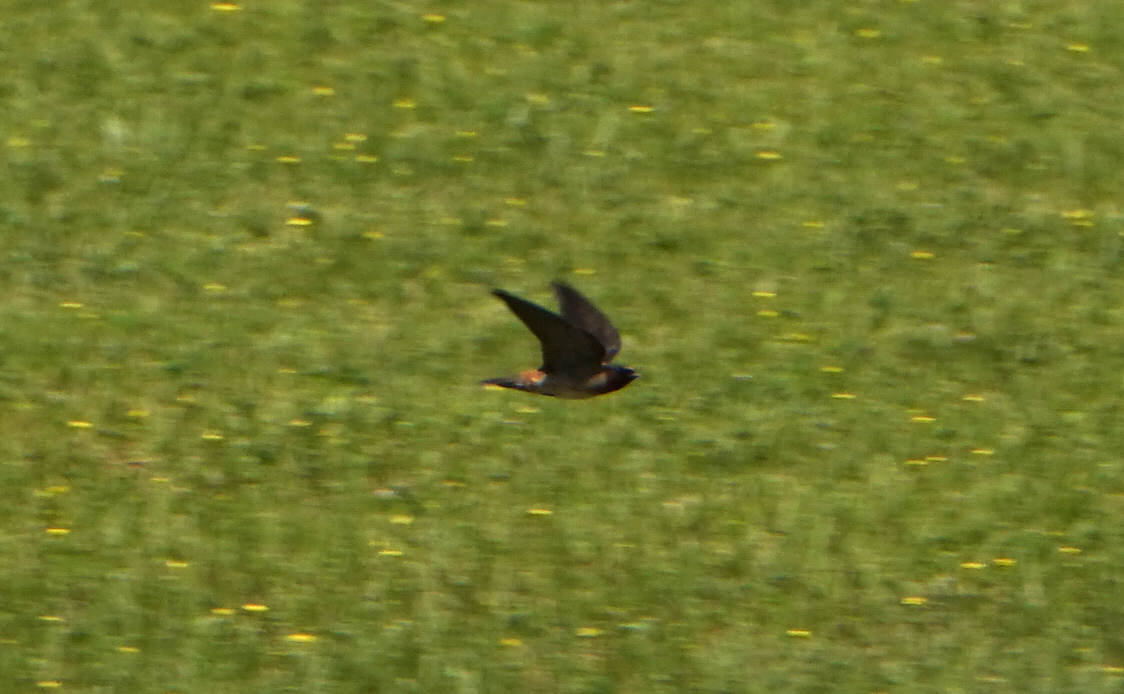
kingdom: Animalia
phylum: Chordata
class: Aves
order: Passeriformes
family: Hirundinidae
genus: Petrochelidon
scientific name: Petrochelidon pyrrhonota
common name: American cliff swallow
